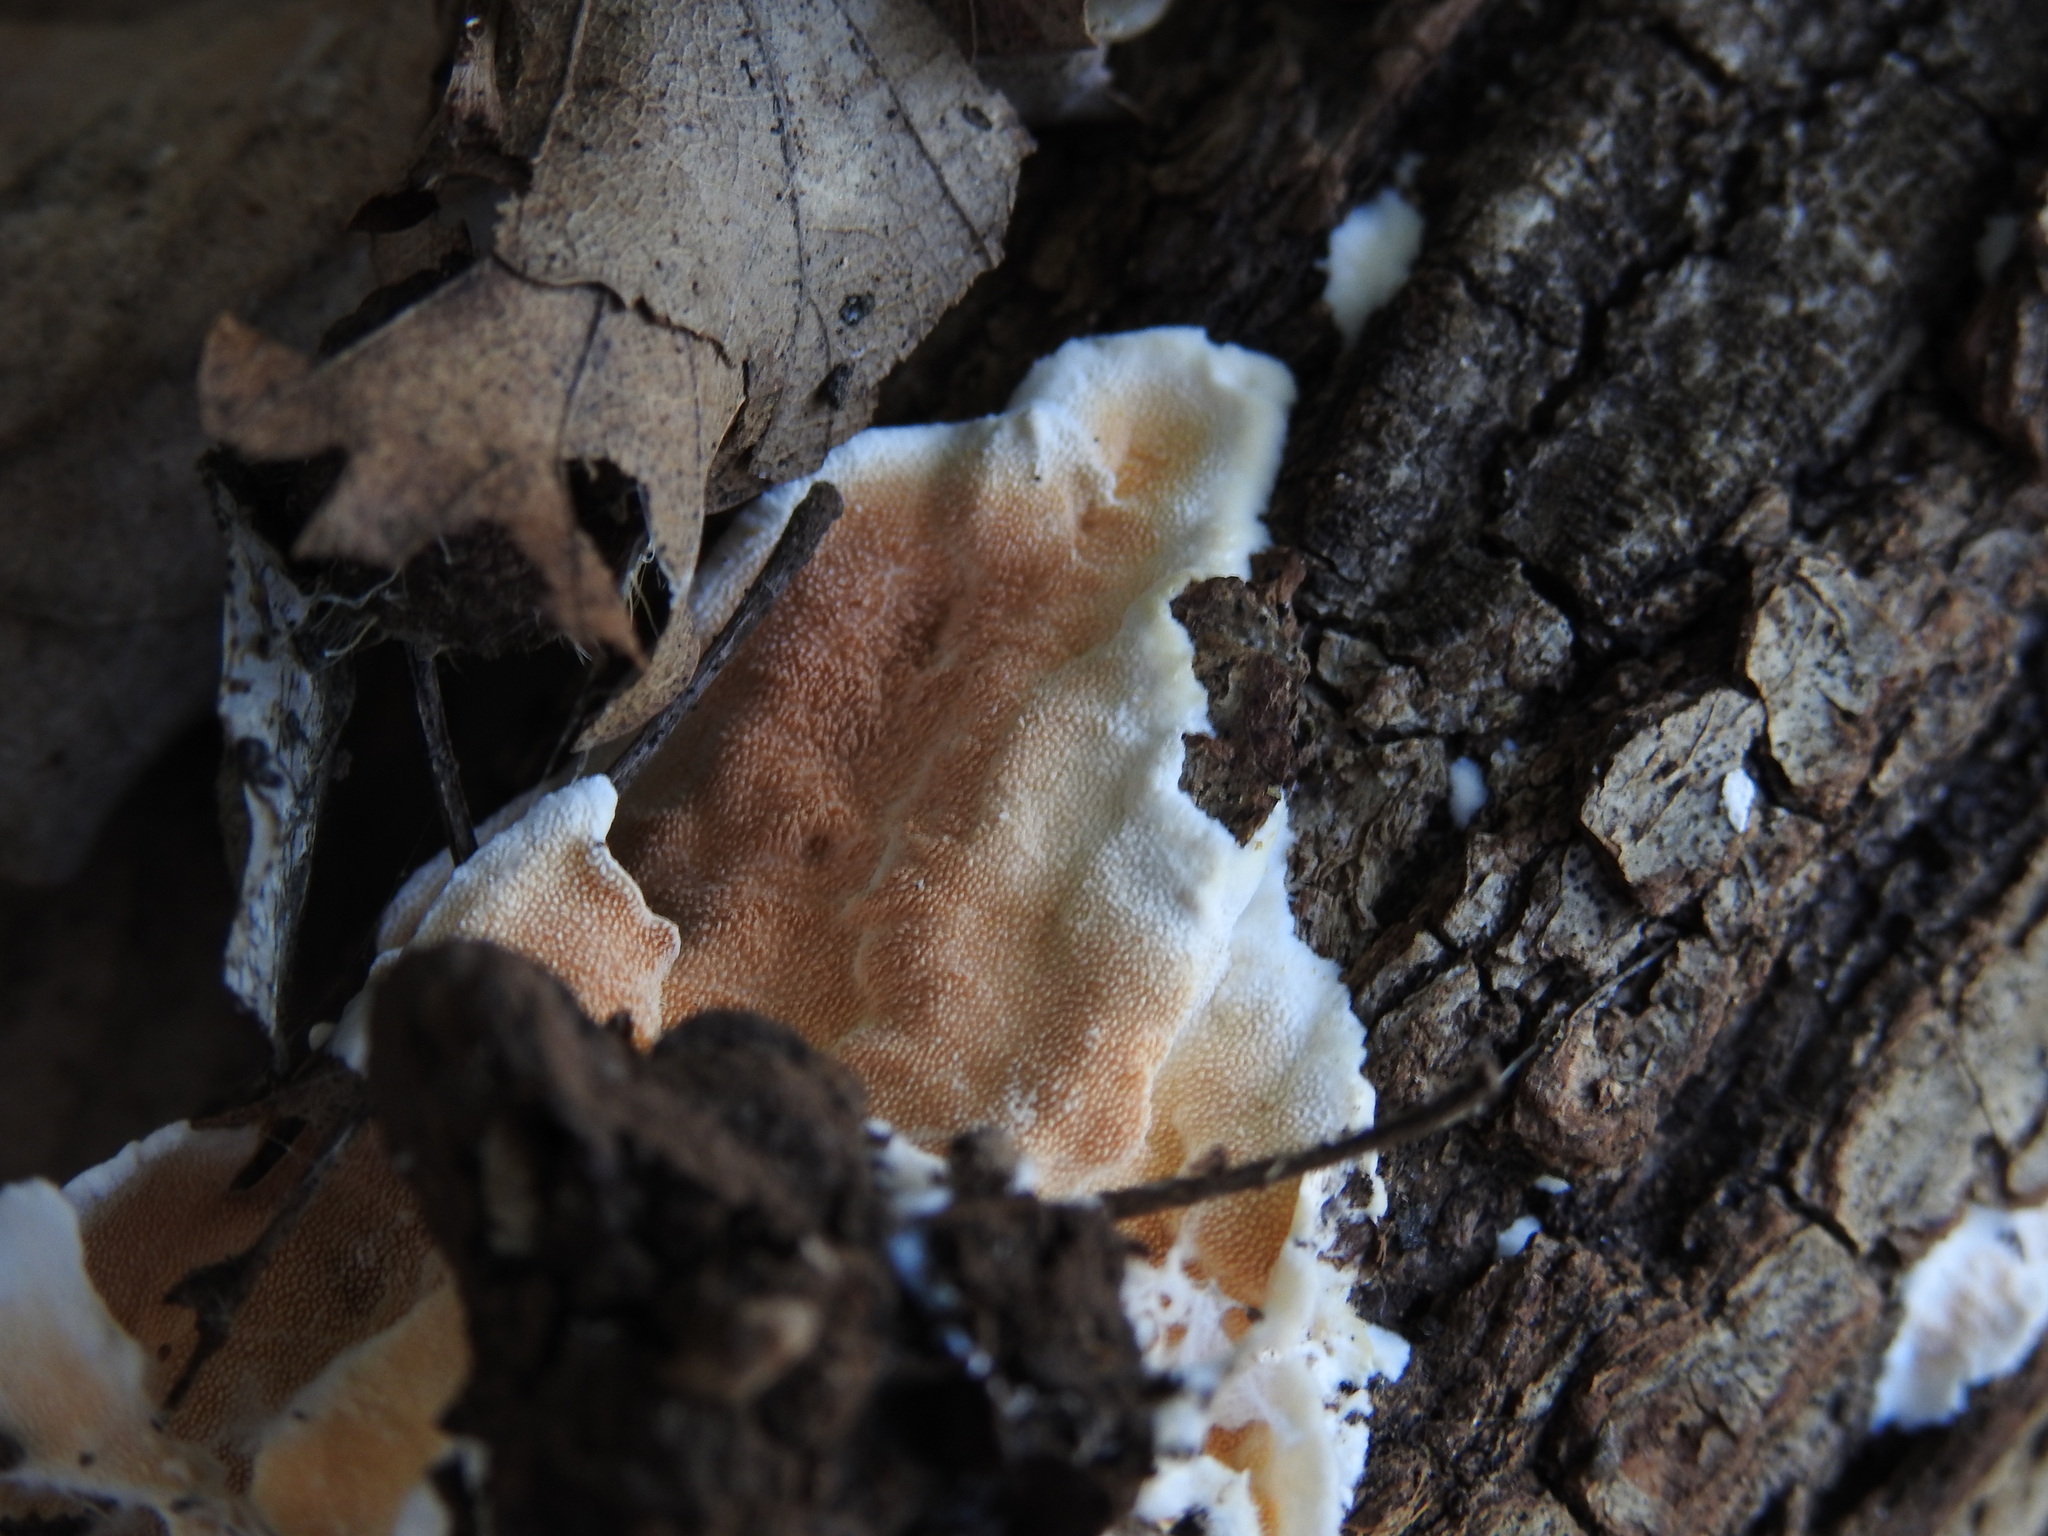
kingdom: Fungi
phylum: Basidiomycota
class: Agaricomycetes
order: Polyporales
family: Steccherinaceae
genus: Steccherinum
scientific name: Steccherinum ochraceum
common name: Ochre spreading tooth
